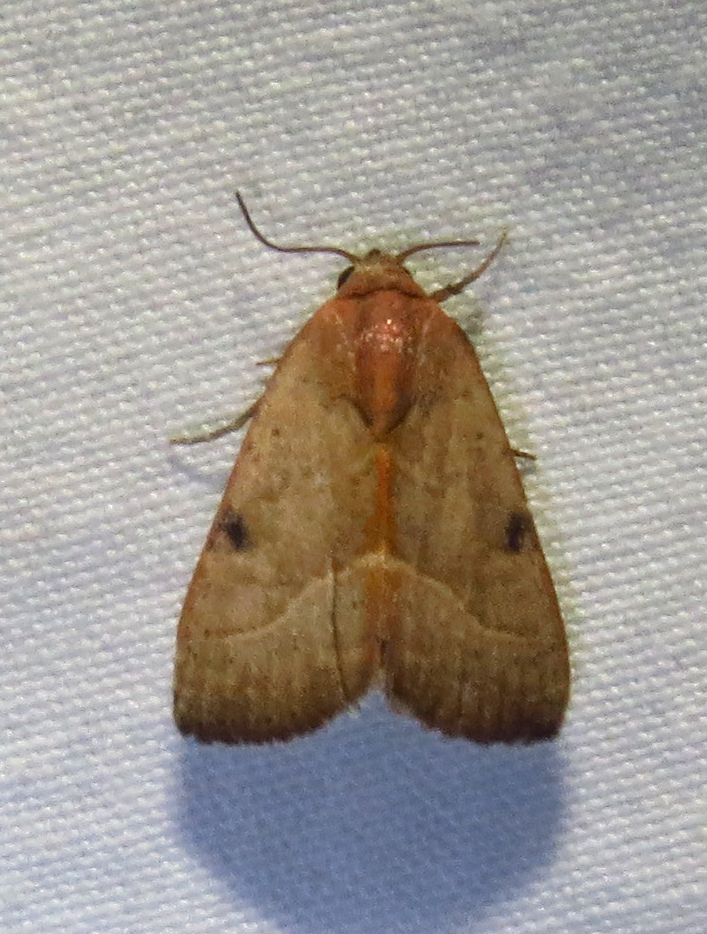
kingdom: Animalia
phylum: Arthropoda
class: Insecta
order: Lepidoptera
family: Noctuidae
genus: Galgula
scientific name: Galgula partita
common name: Wedgeling
